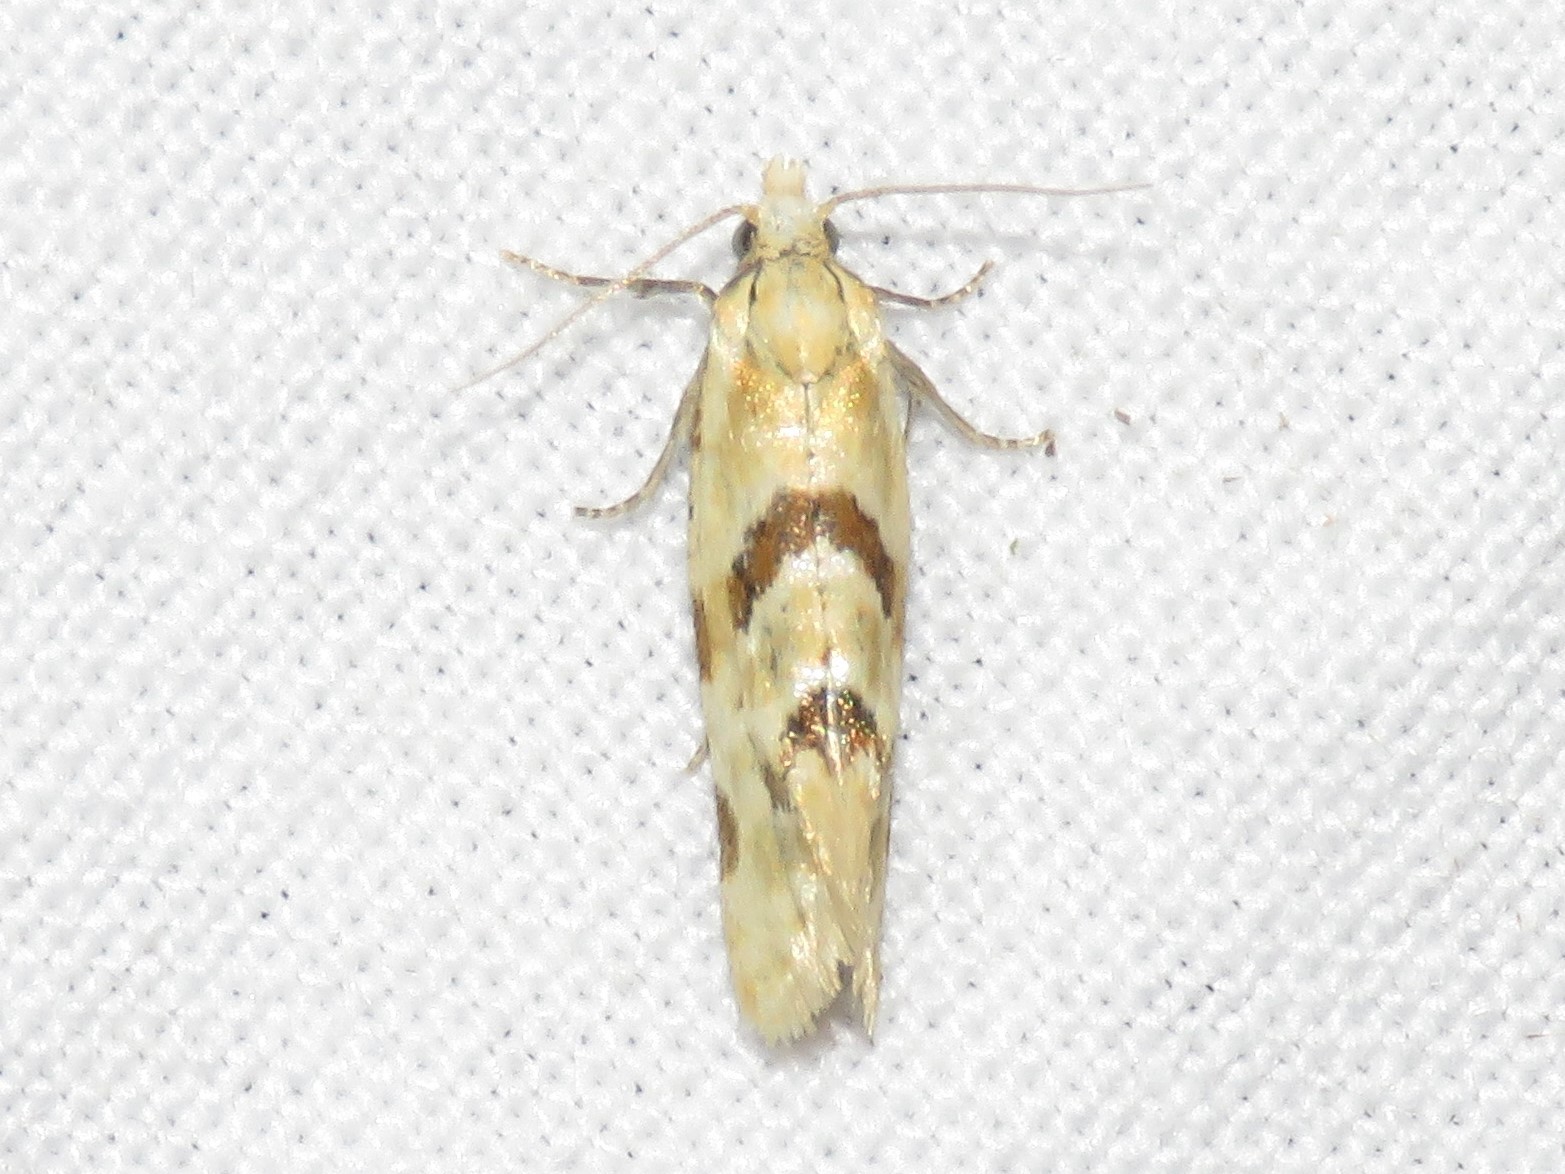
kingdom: Animalia
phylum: Arthropoda
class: Insecta
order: Lepidoptera
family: Tortricidae
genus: Aethes
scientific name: Aethes smeathmanniana
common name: Yarrow conch
